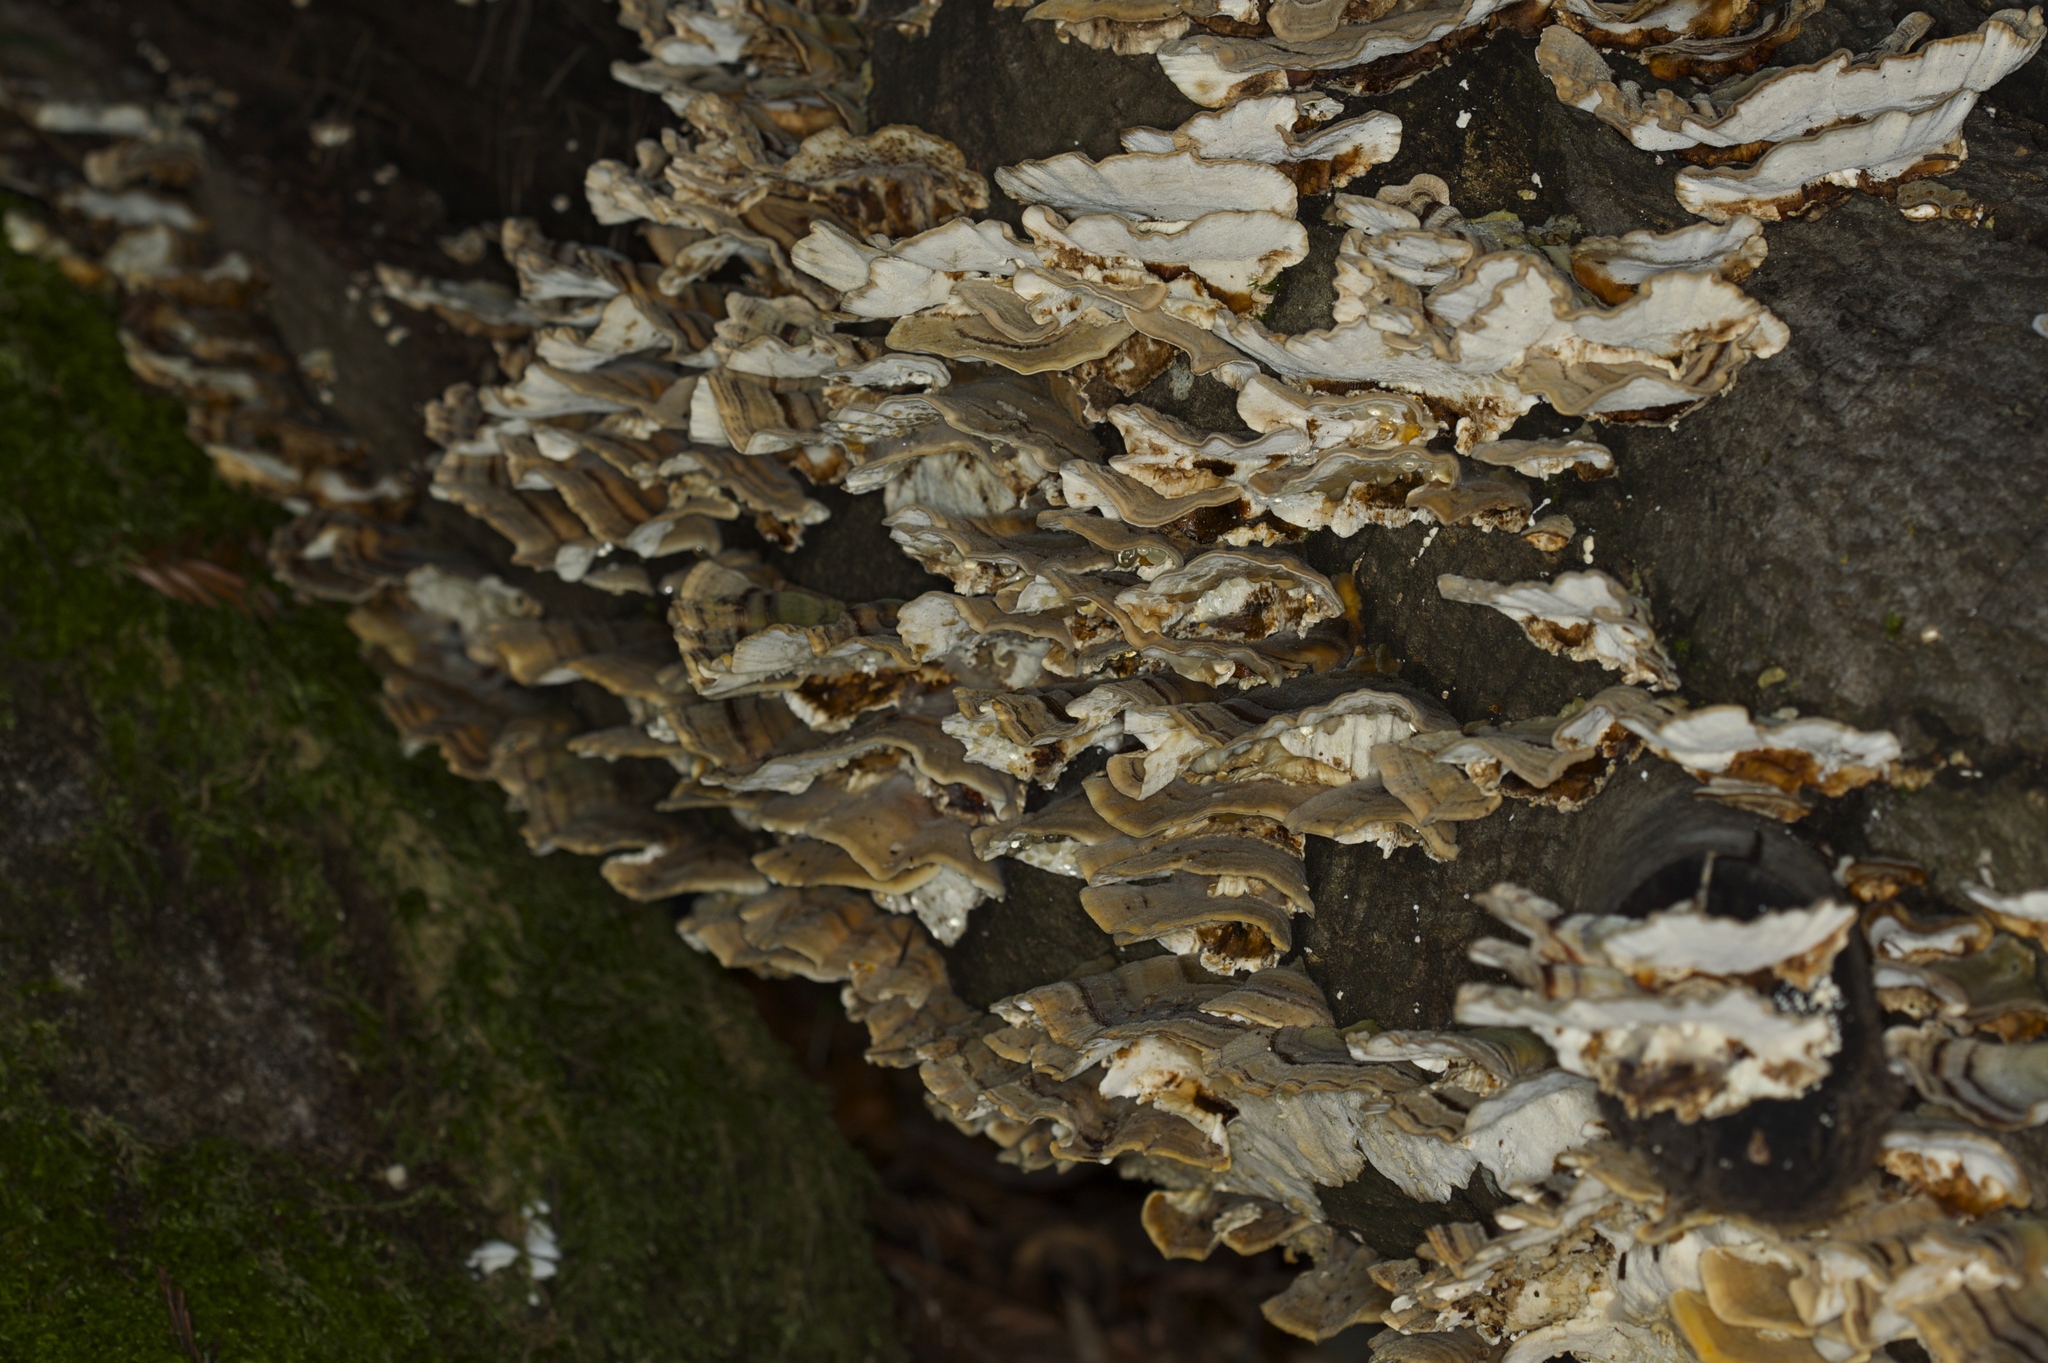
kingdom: Fungi
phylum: Basidiomycota
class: Agaricomycetes
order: Polyporales
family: Polyporaceae
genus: Trametes
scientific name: Trametes versicolor
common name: Turkeytail
